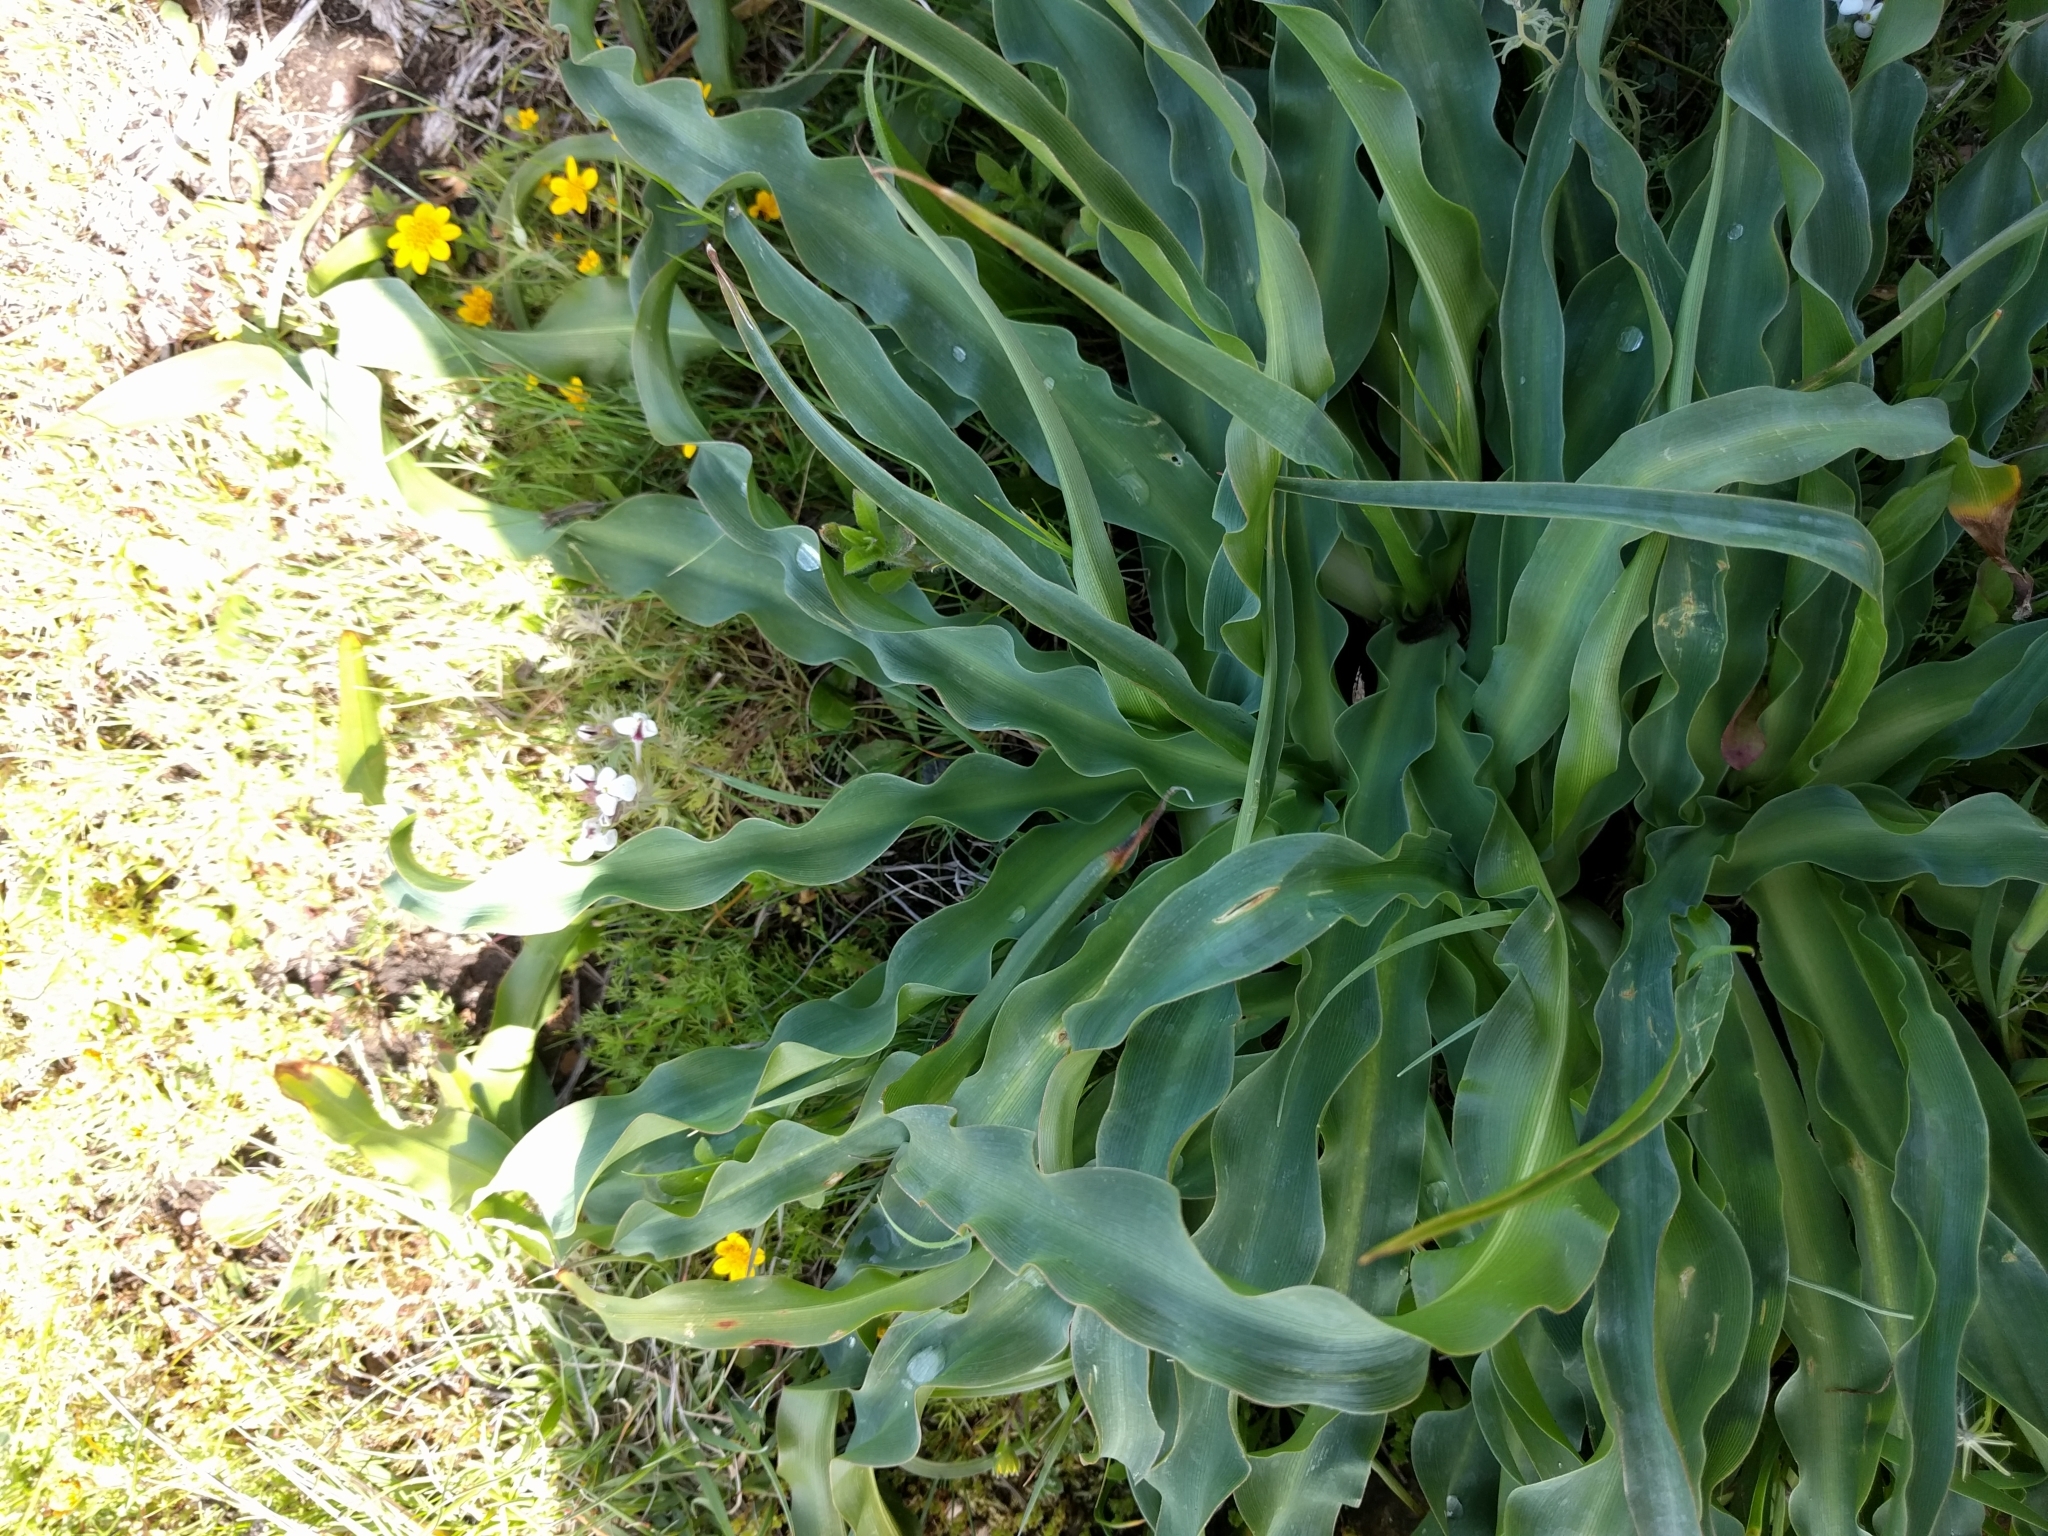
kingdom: Plantae
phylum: Tracheophyta
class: Liliopsida
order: Asparagales
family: Asparagaceae
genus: Chlorogalum
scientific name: Chlorogalum pomeridianum
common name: Amole
